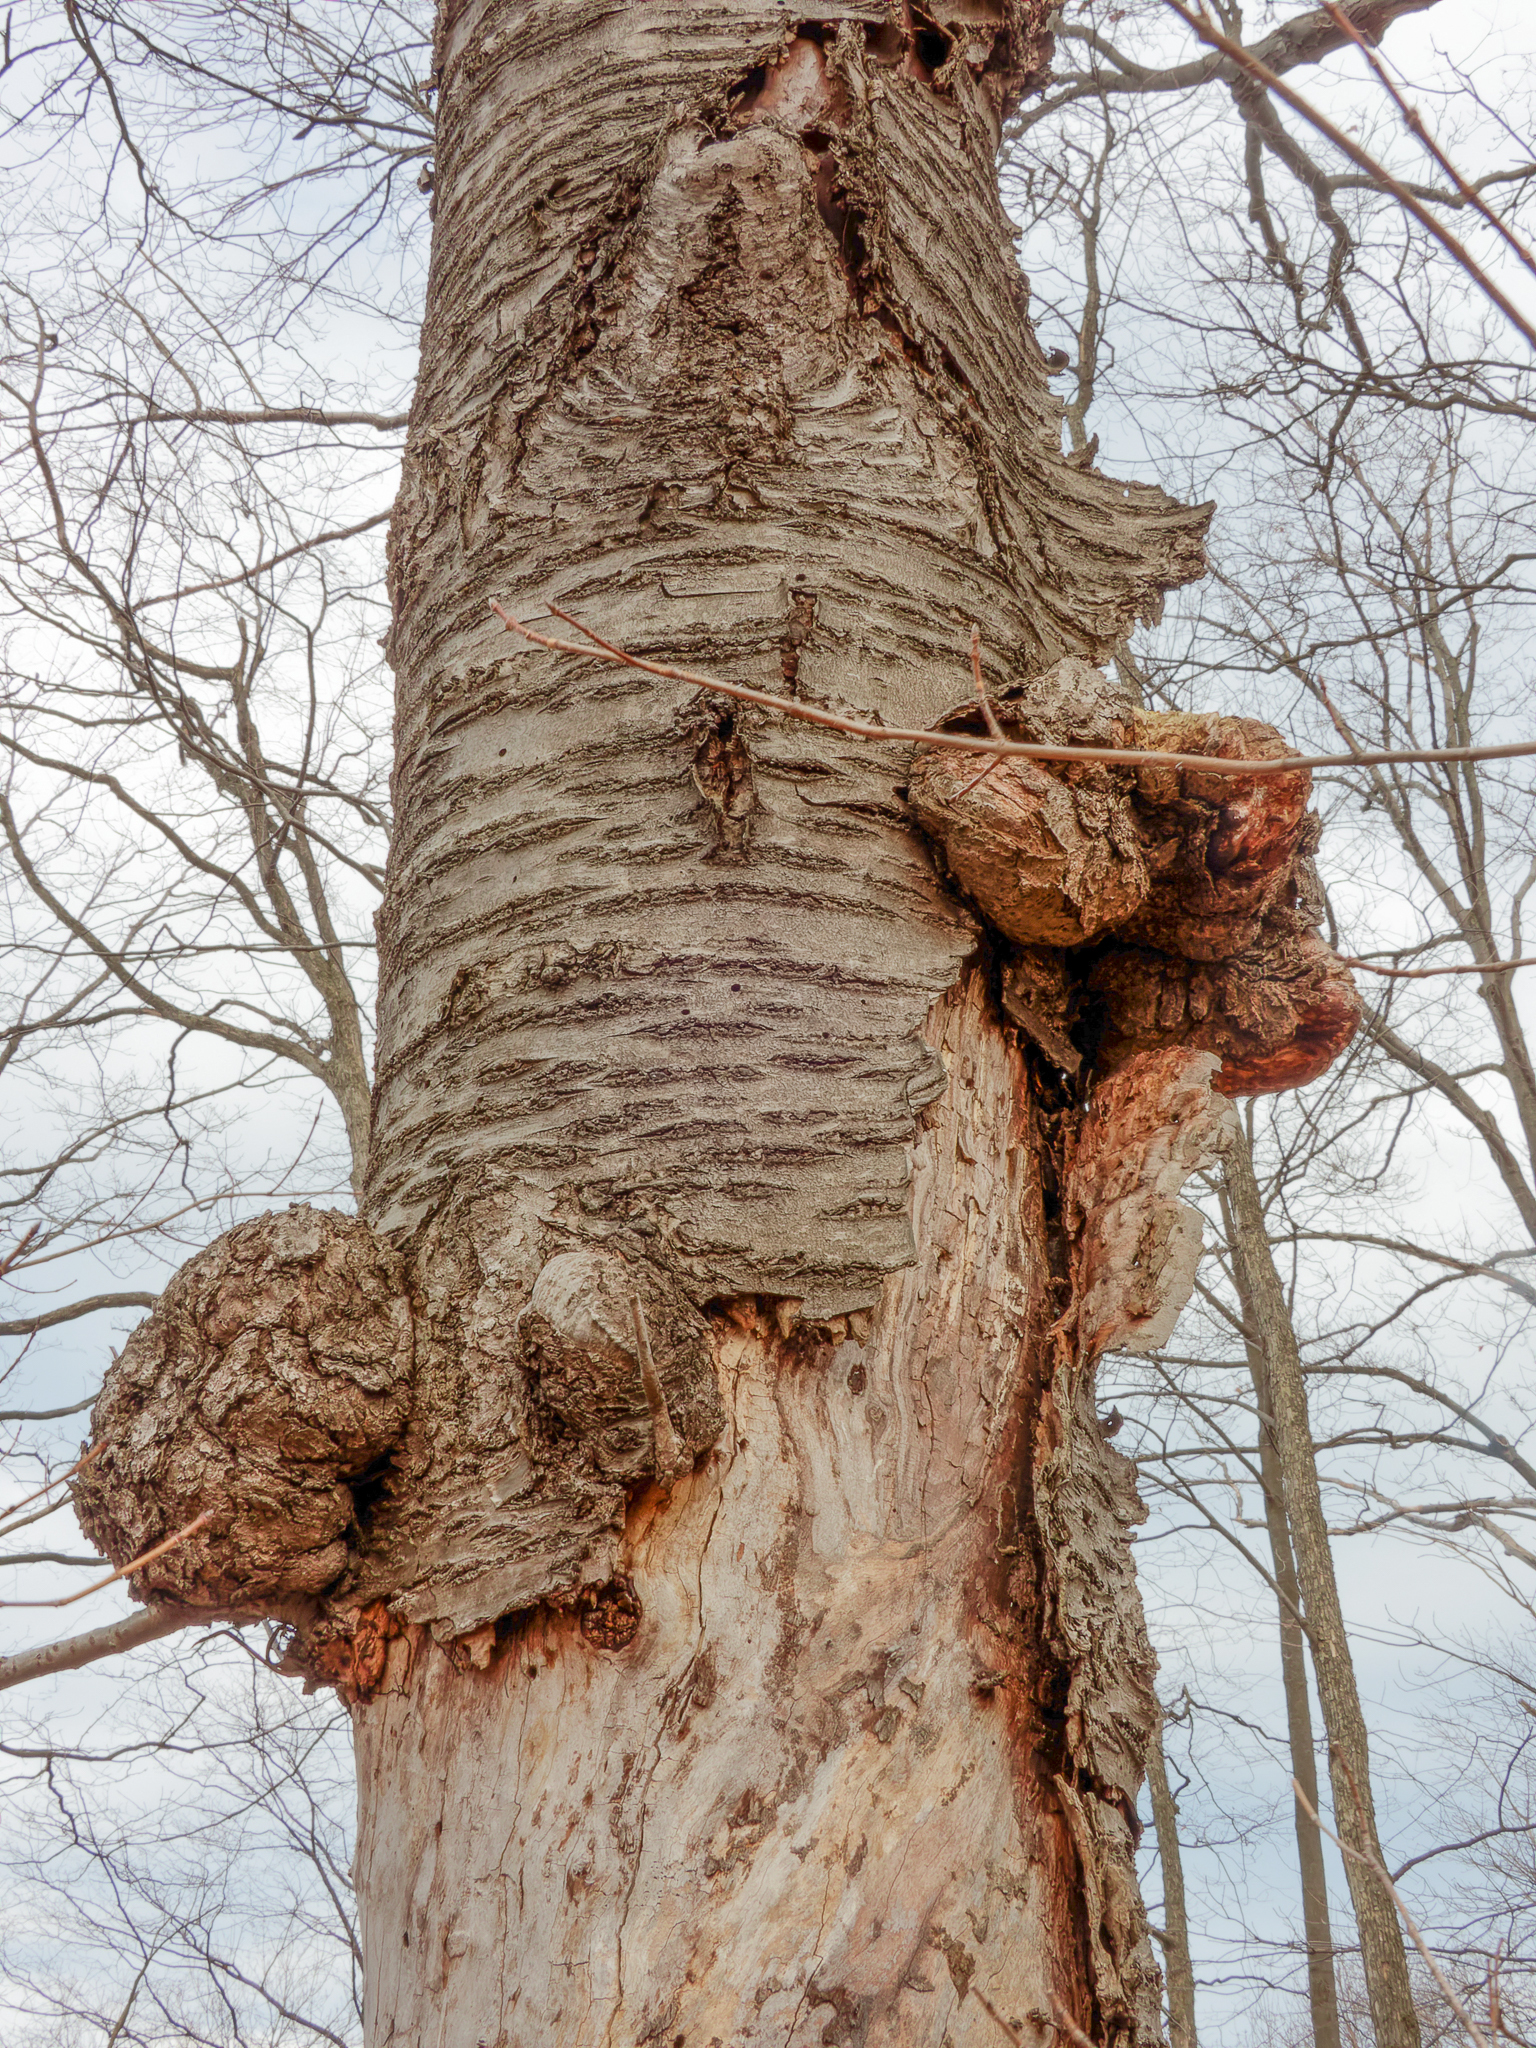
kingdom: Bacteria
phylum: Proteobacteria
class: Alphaproteobacteria
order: Rhizobiales
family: Rhizobiaceae
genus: Rhizobium
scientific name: Rhizobium Agrobacterium radiobacter
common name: Bacterial crown gall
